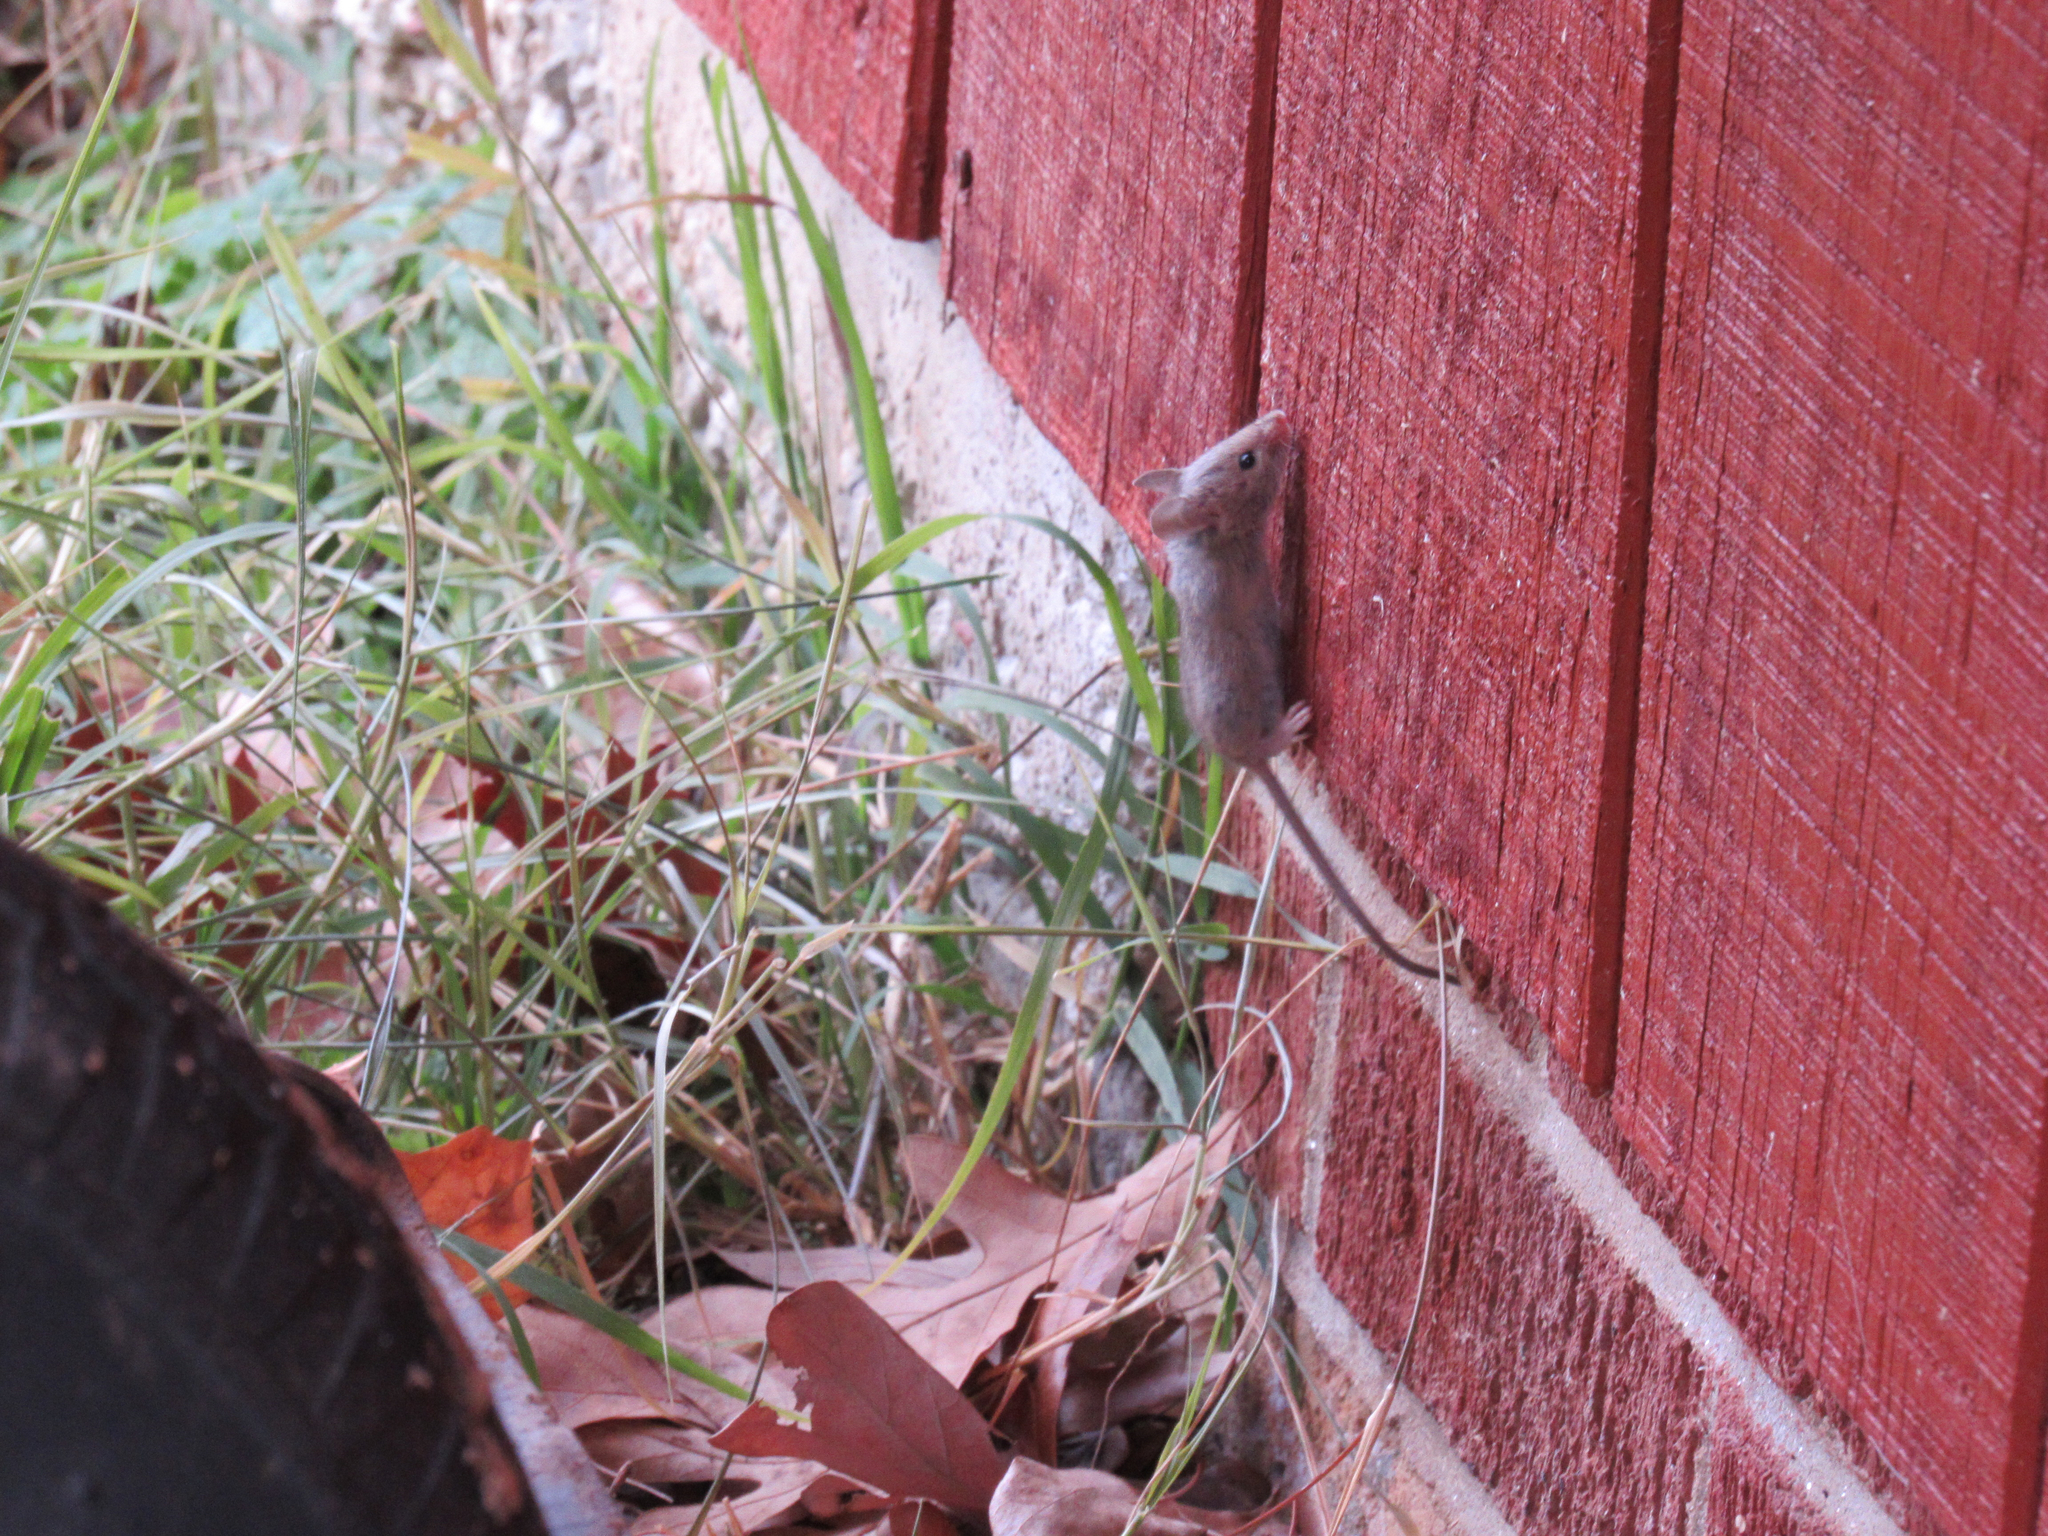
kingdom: Animalia
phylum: Chordata
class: Mammalia
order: Rodentia
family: Muridae
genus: Mus
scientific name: Mus musculus
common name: House mouse
